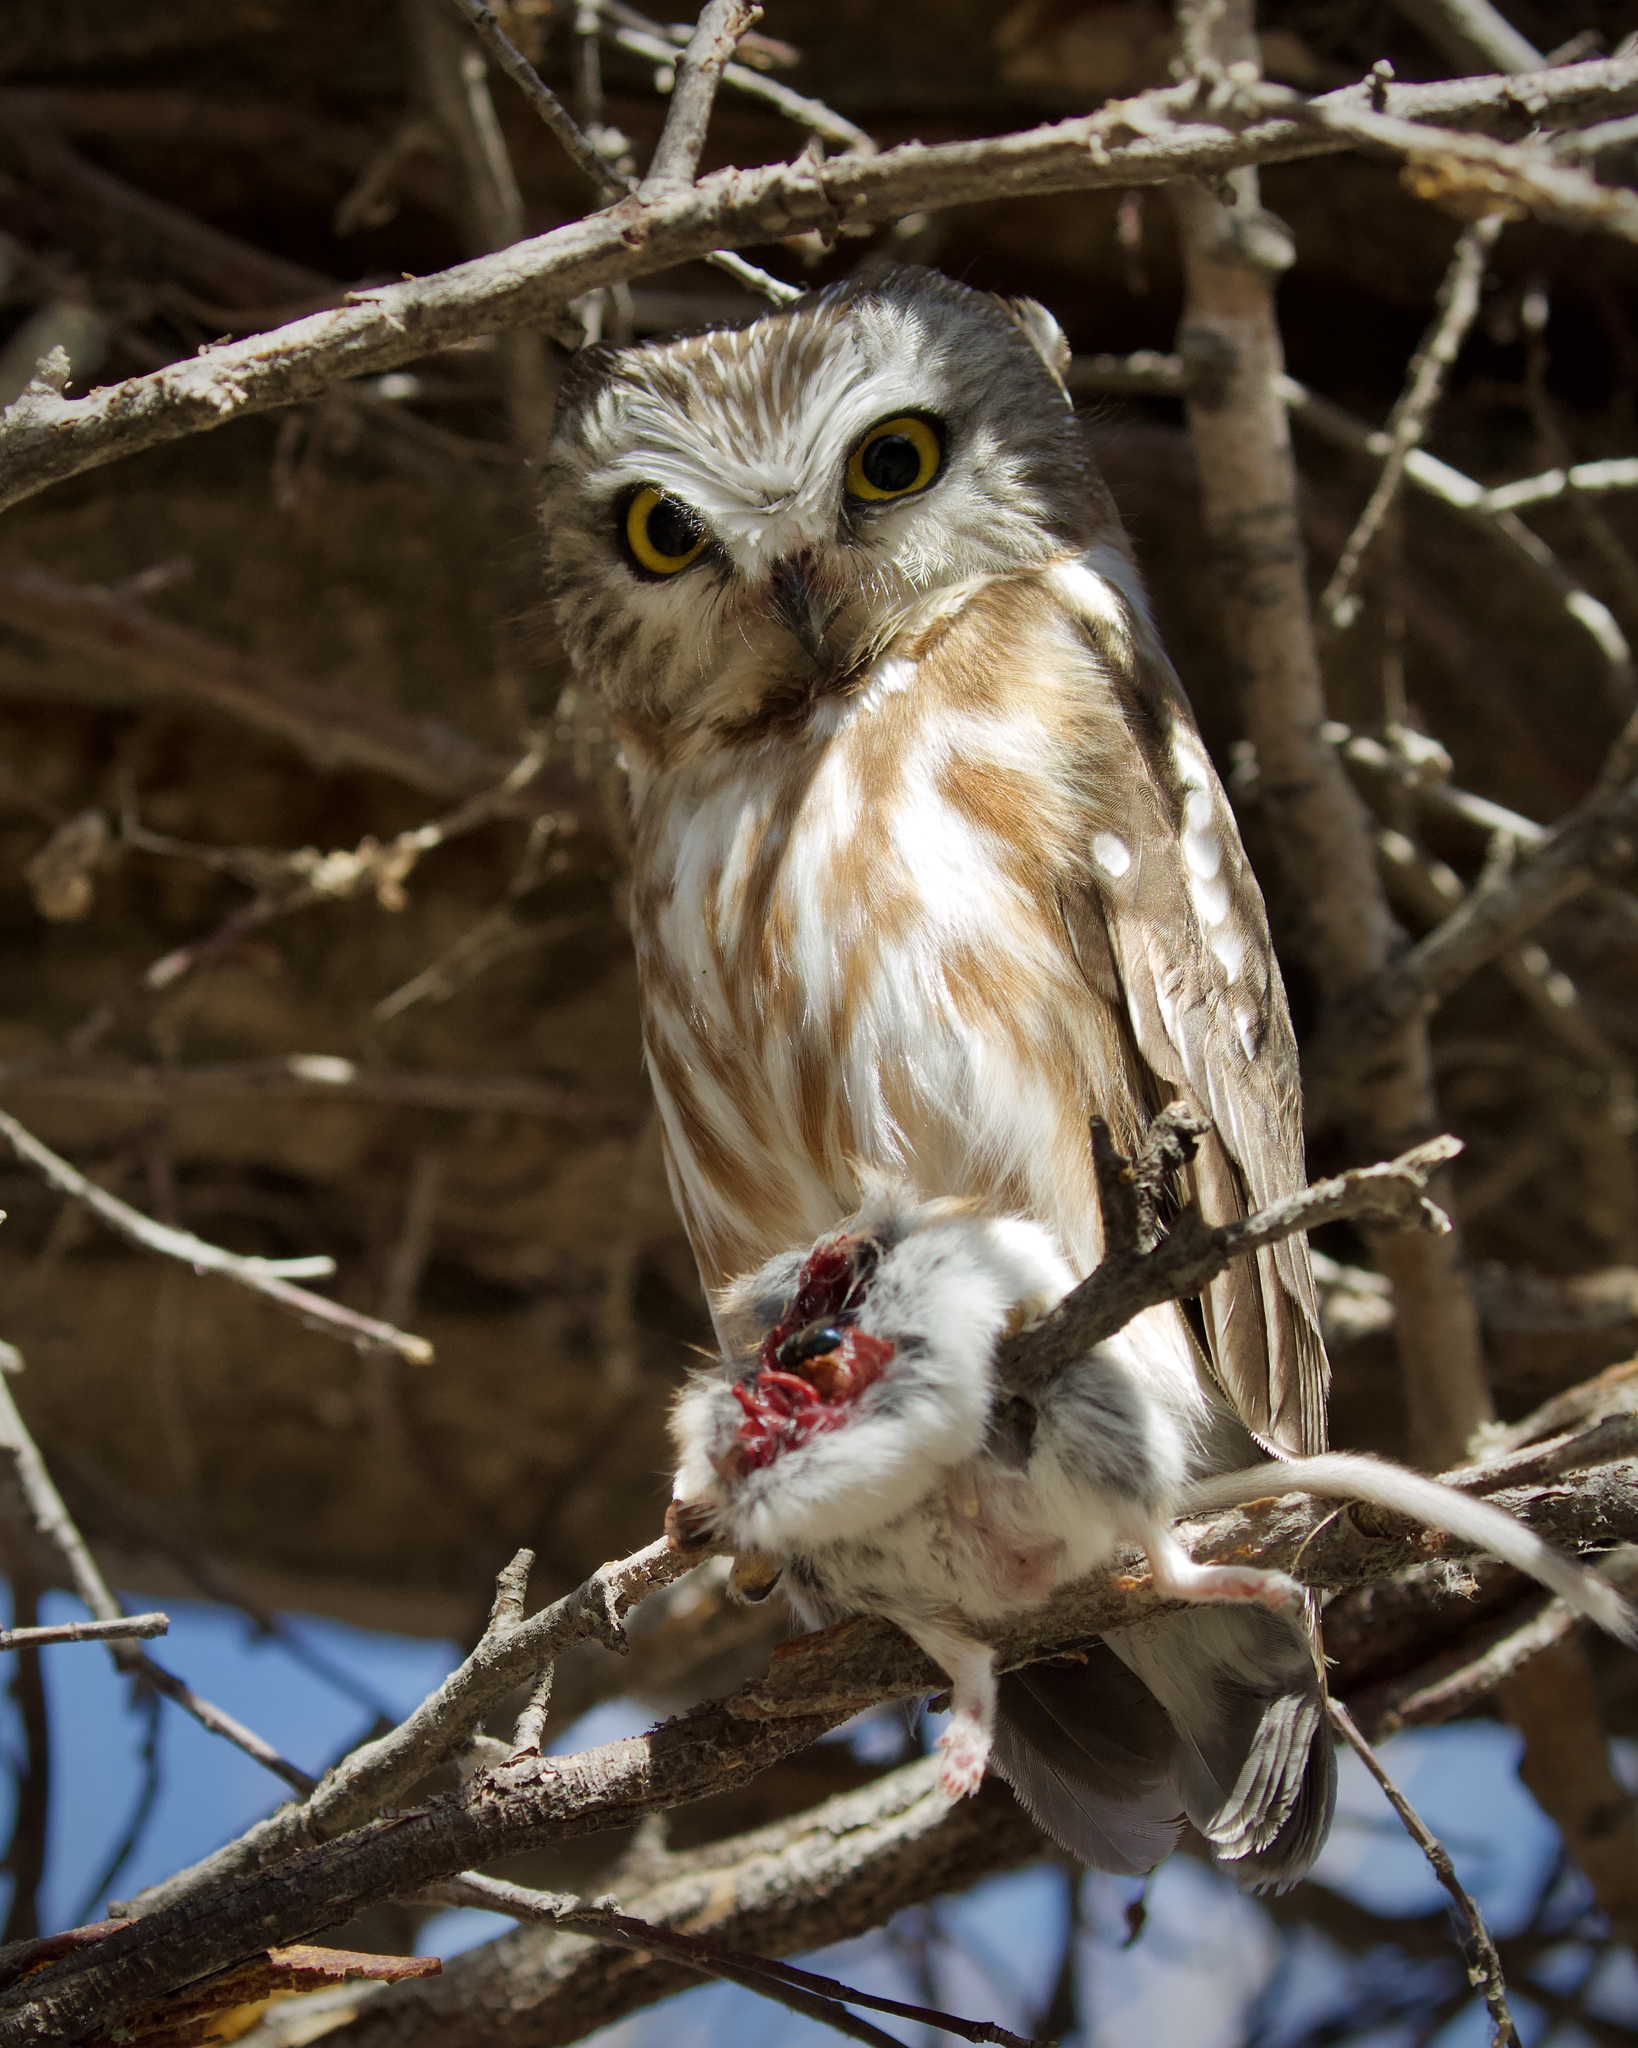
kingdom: Animalia
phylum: Chordata
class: Aves
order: Strigiformes
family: Strigidae
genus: Aegolius
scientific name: Aegolius acadicus
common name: Northern saw-whet owl
